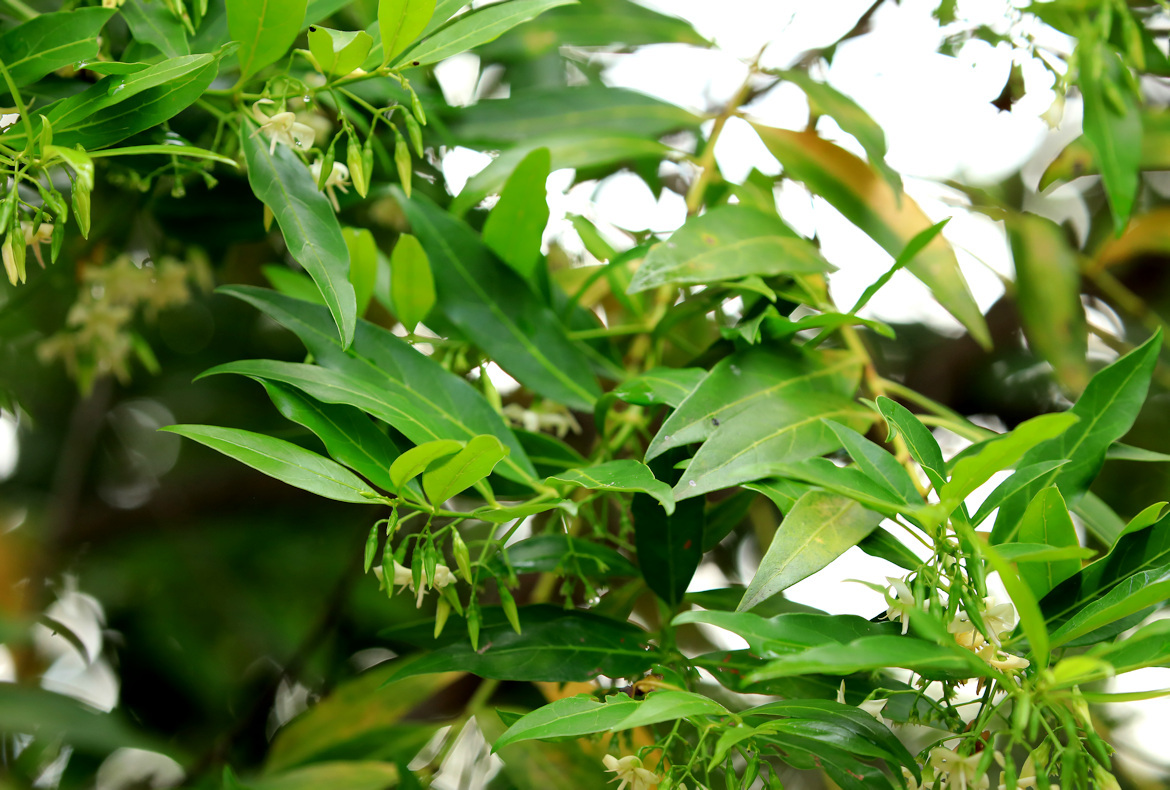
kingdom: Plantae
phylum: Tracheophyta
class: Magnoliopsida
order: Gentianales
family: Rubiaceae
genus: Kraussia
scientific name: Kraussia floribunda
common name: Rhino-coffee
